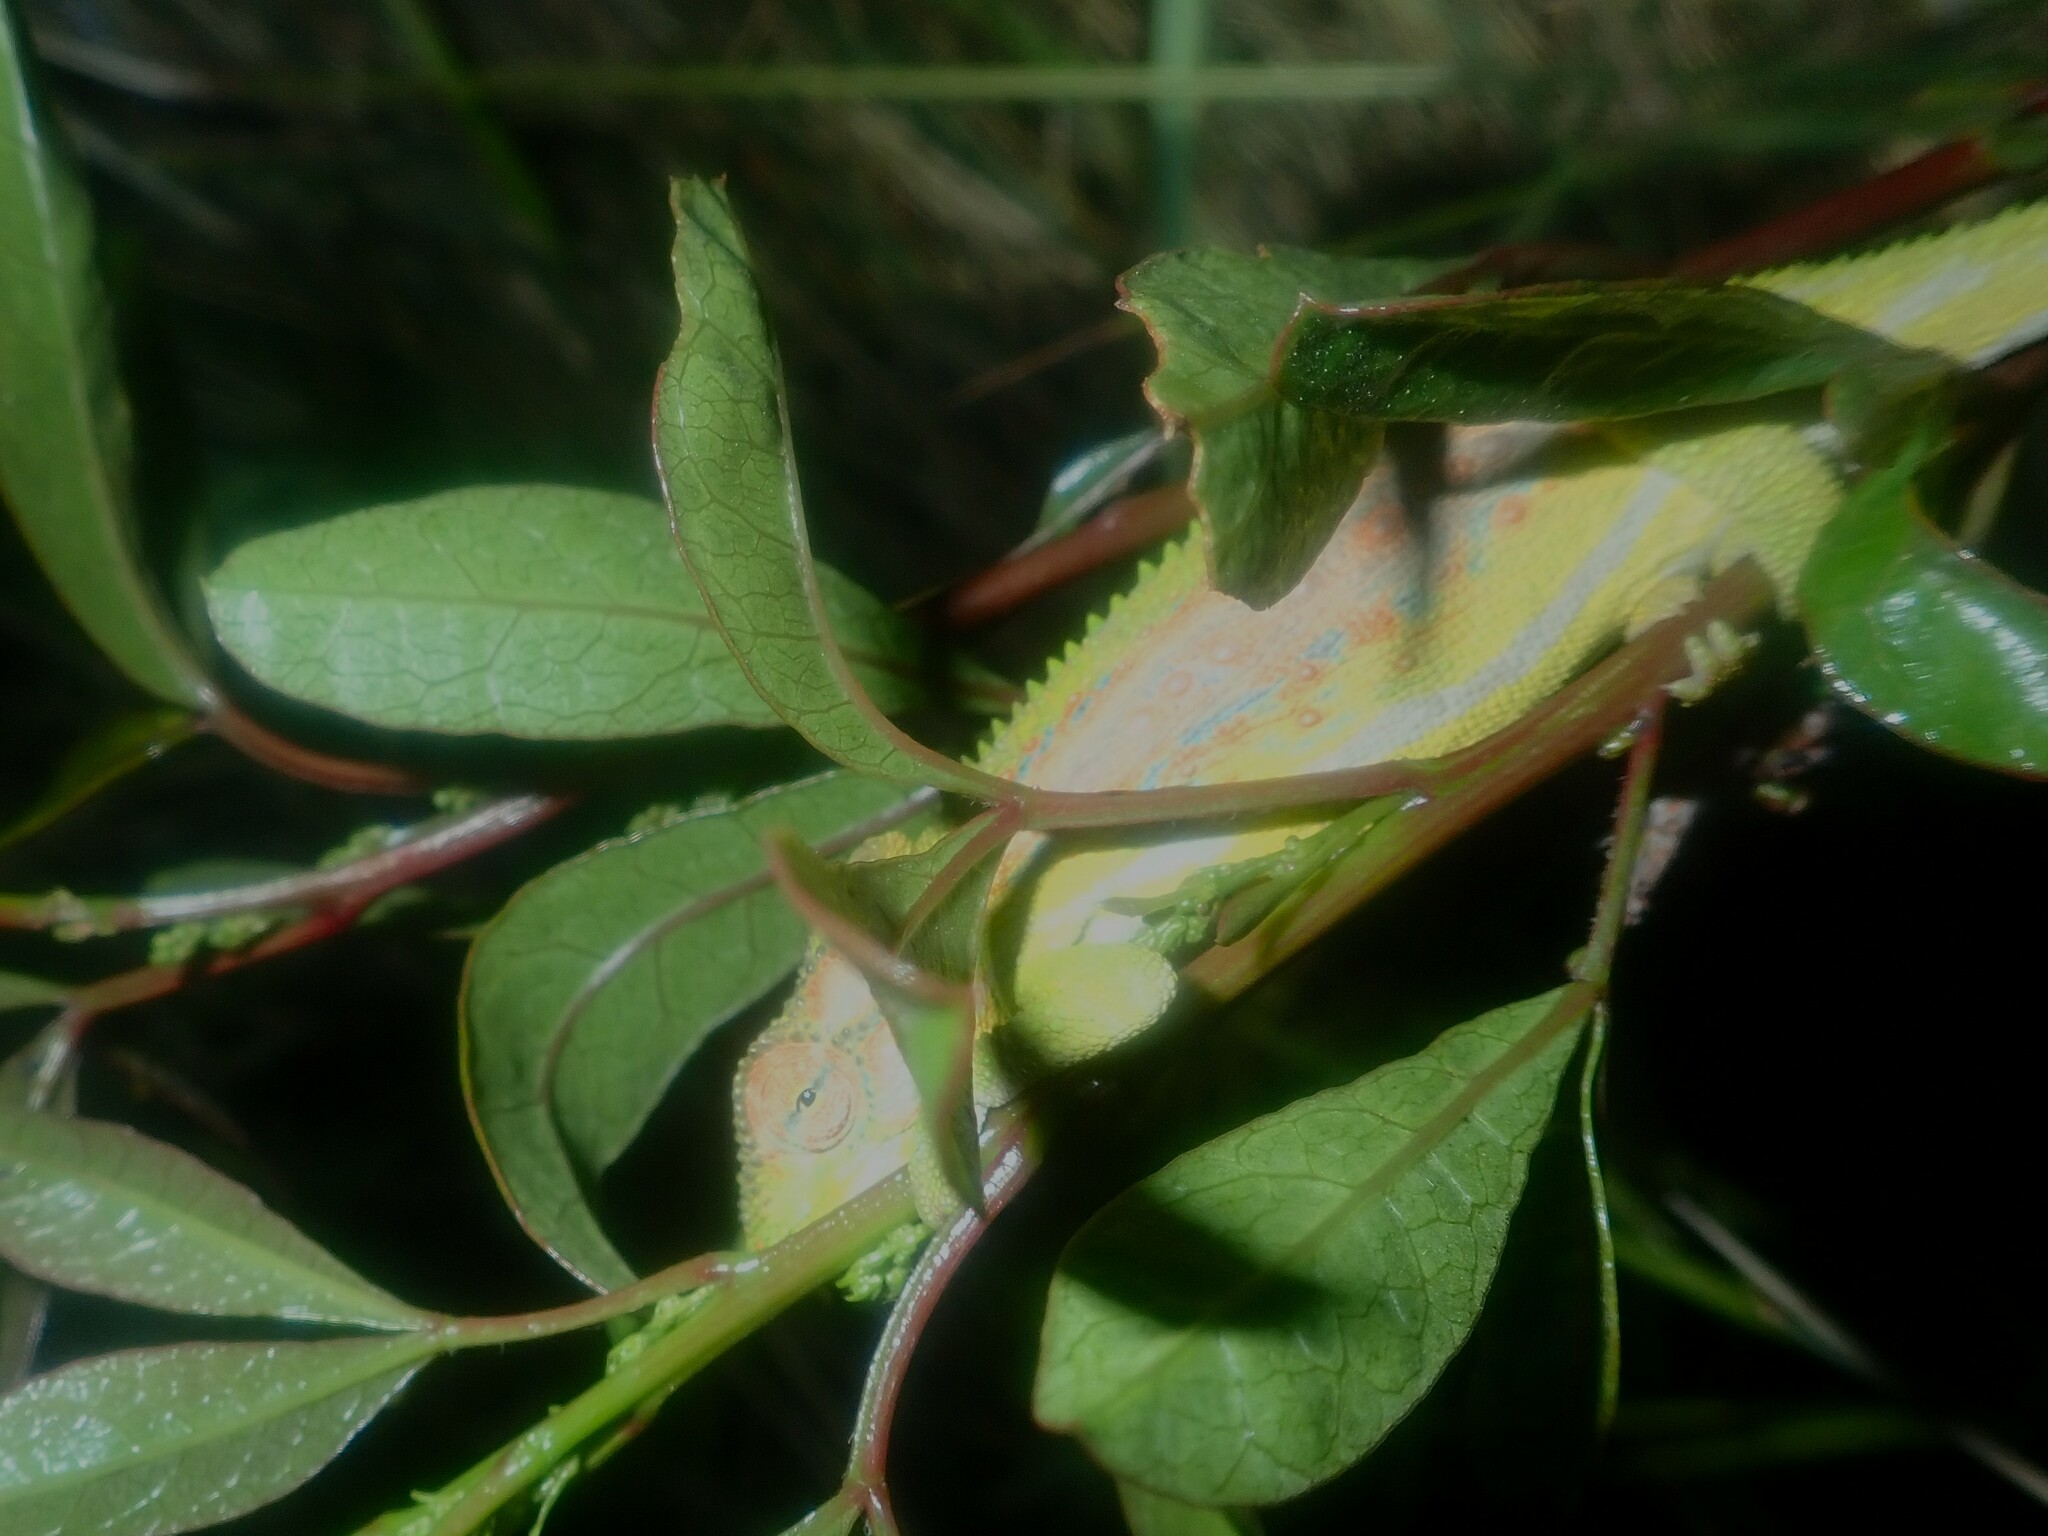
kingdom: Animalia
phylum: Chordata
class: Squamata
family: Chamaeleonidae
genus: Bradypodion
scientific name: Bradypodion pumilum
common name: Cape dwarf chameleon
